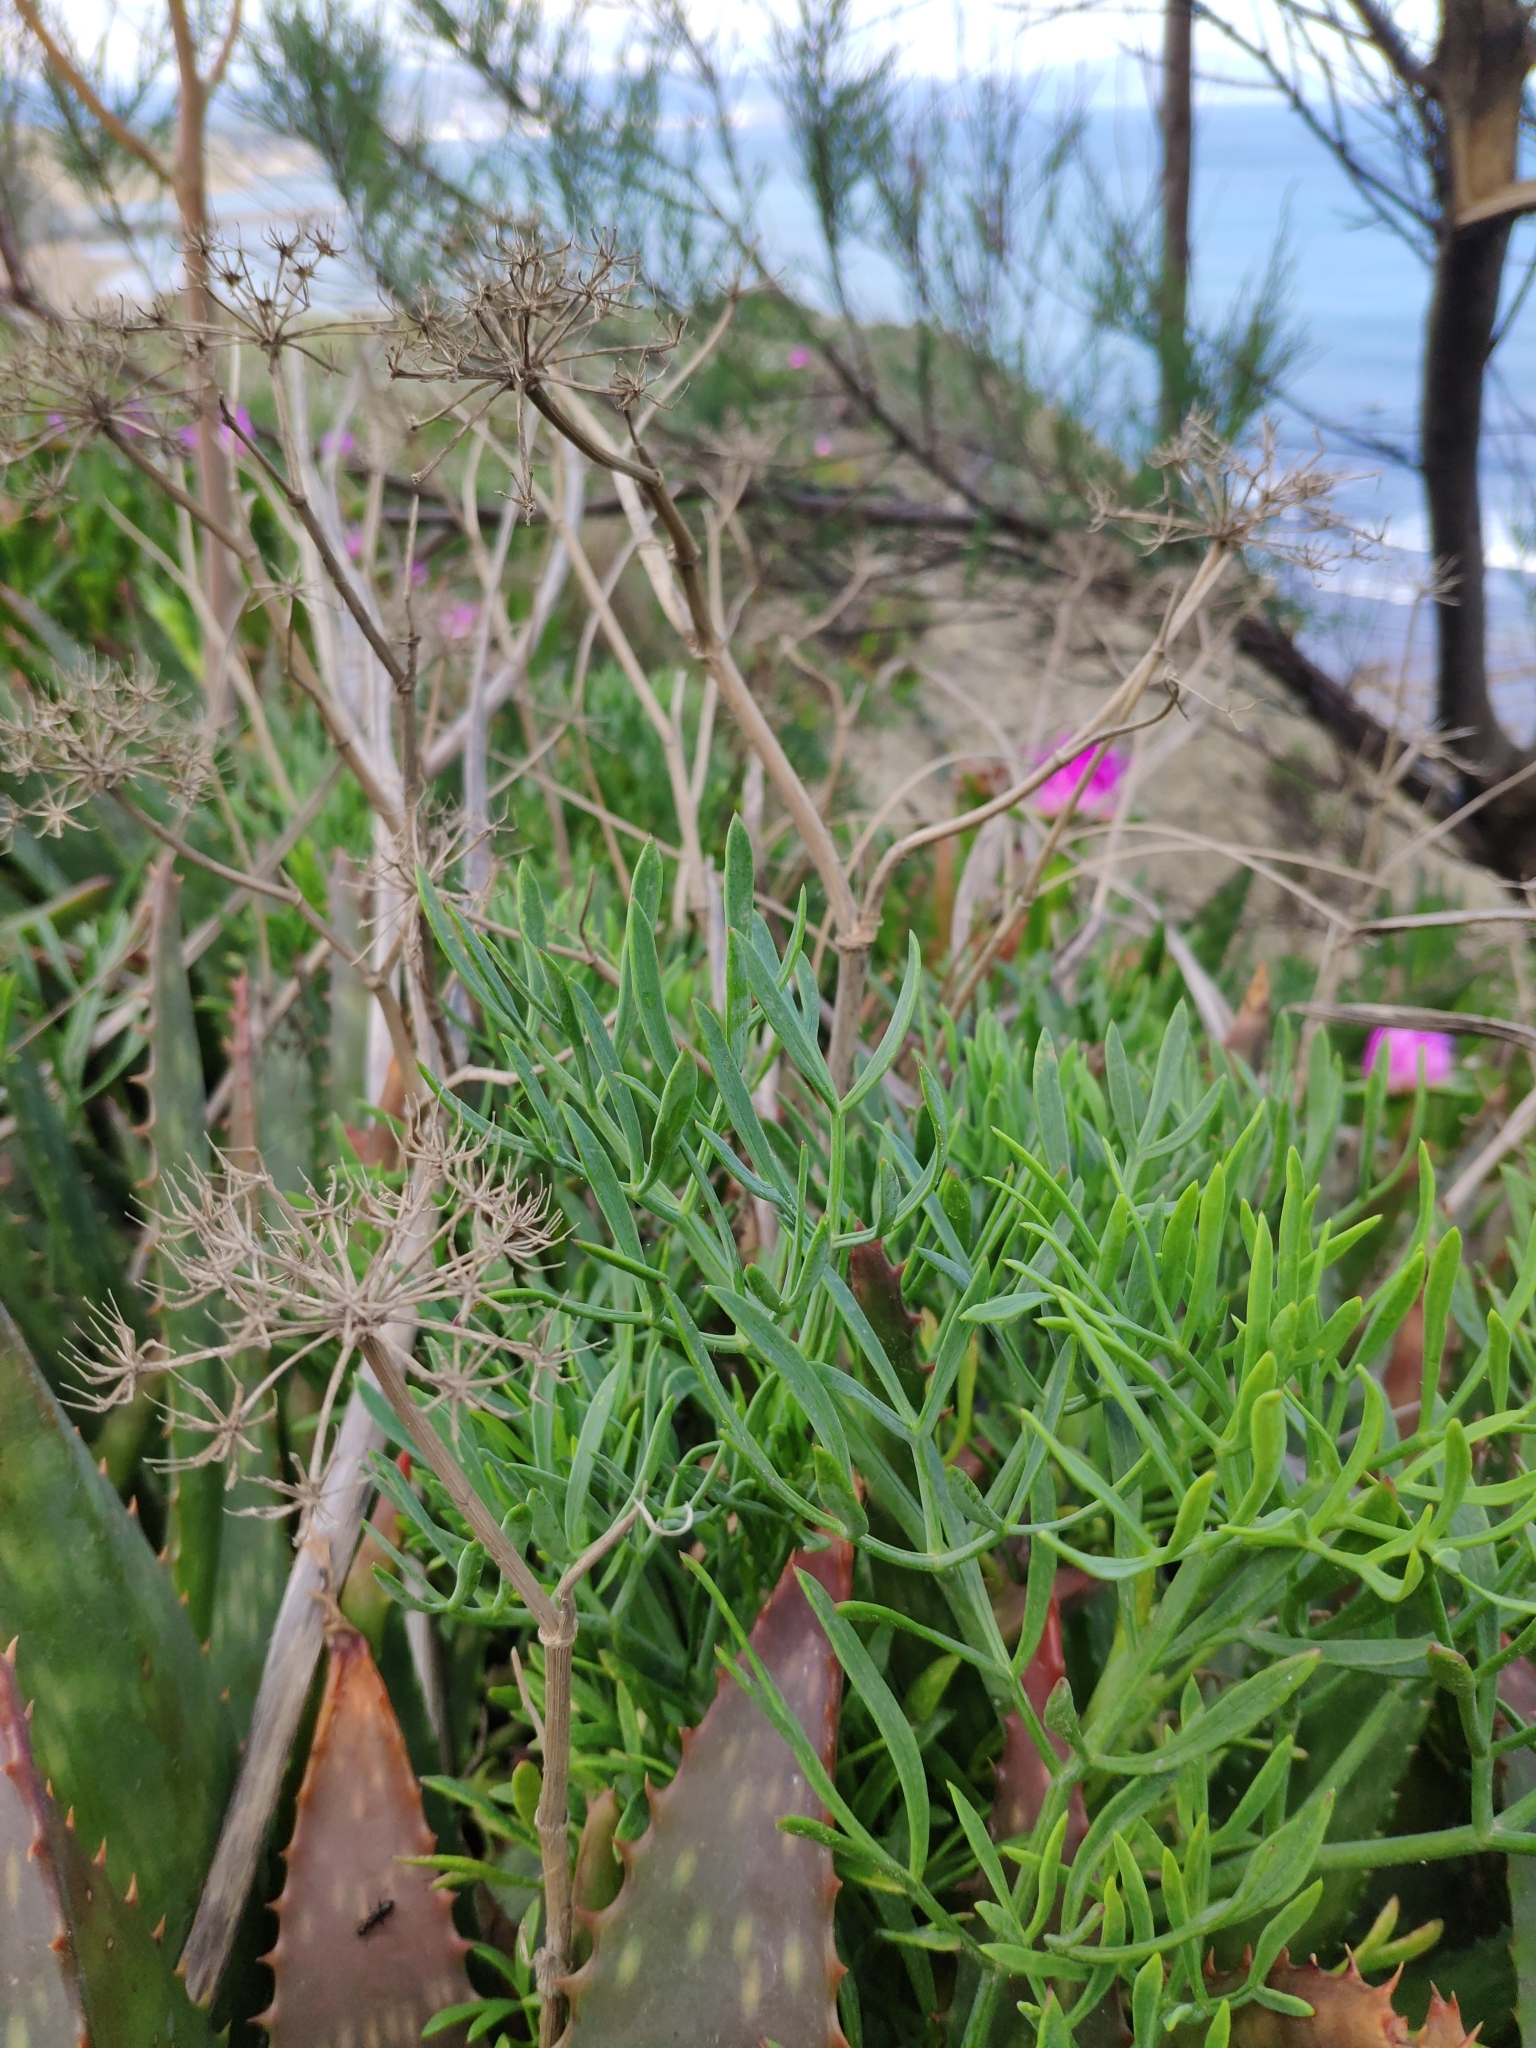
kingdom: Plantae
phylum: Tracheophyta
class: Magnoliopsida
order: Apiales
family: Apiaceae
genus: Crithmum
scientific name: Crithmum maritimum
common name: Rock samphire
